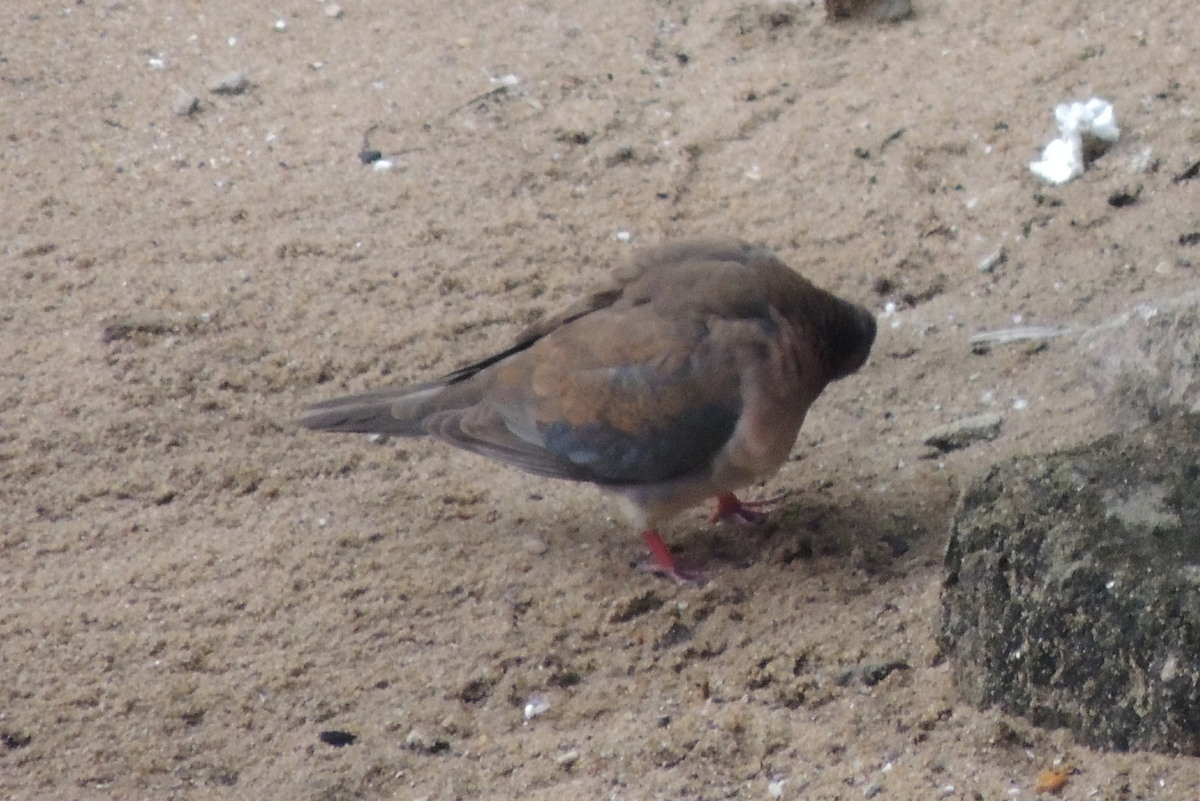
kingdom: Animalia
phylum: Chordata
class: Aves
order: Columbiformes
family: Columbidae
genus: Spilopelia
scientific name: Spilopelia senegalensis
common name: Laughing dove
